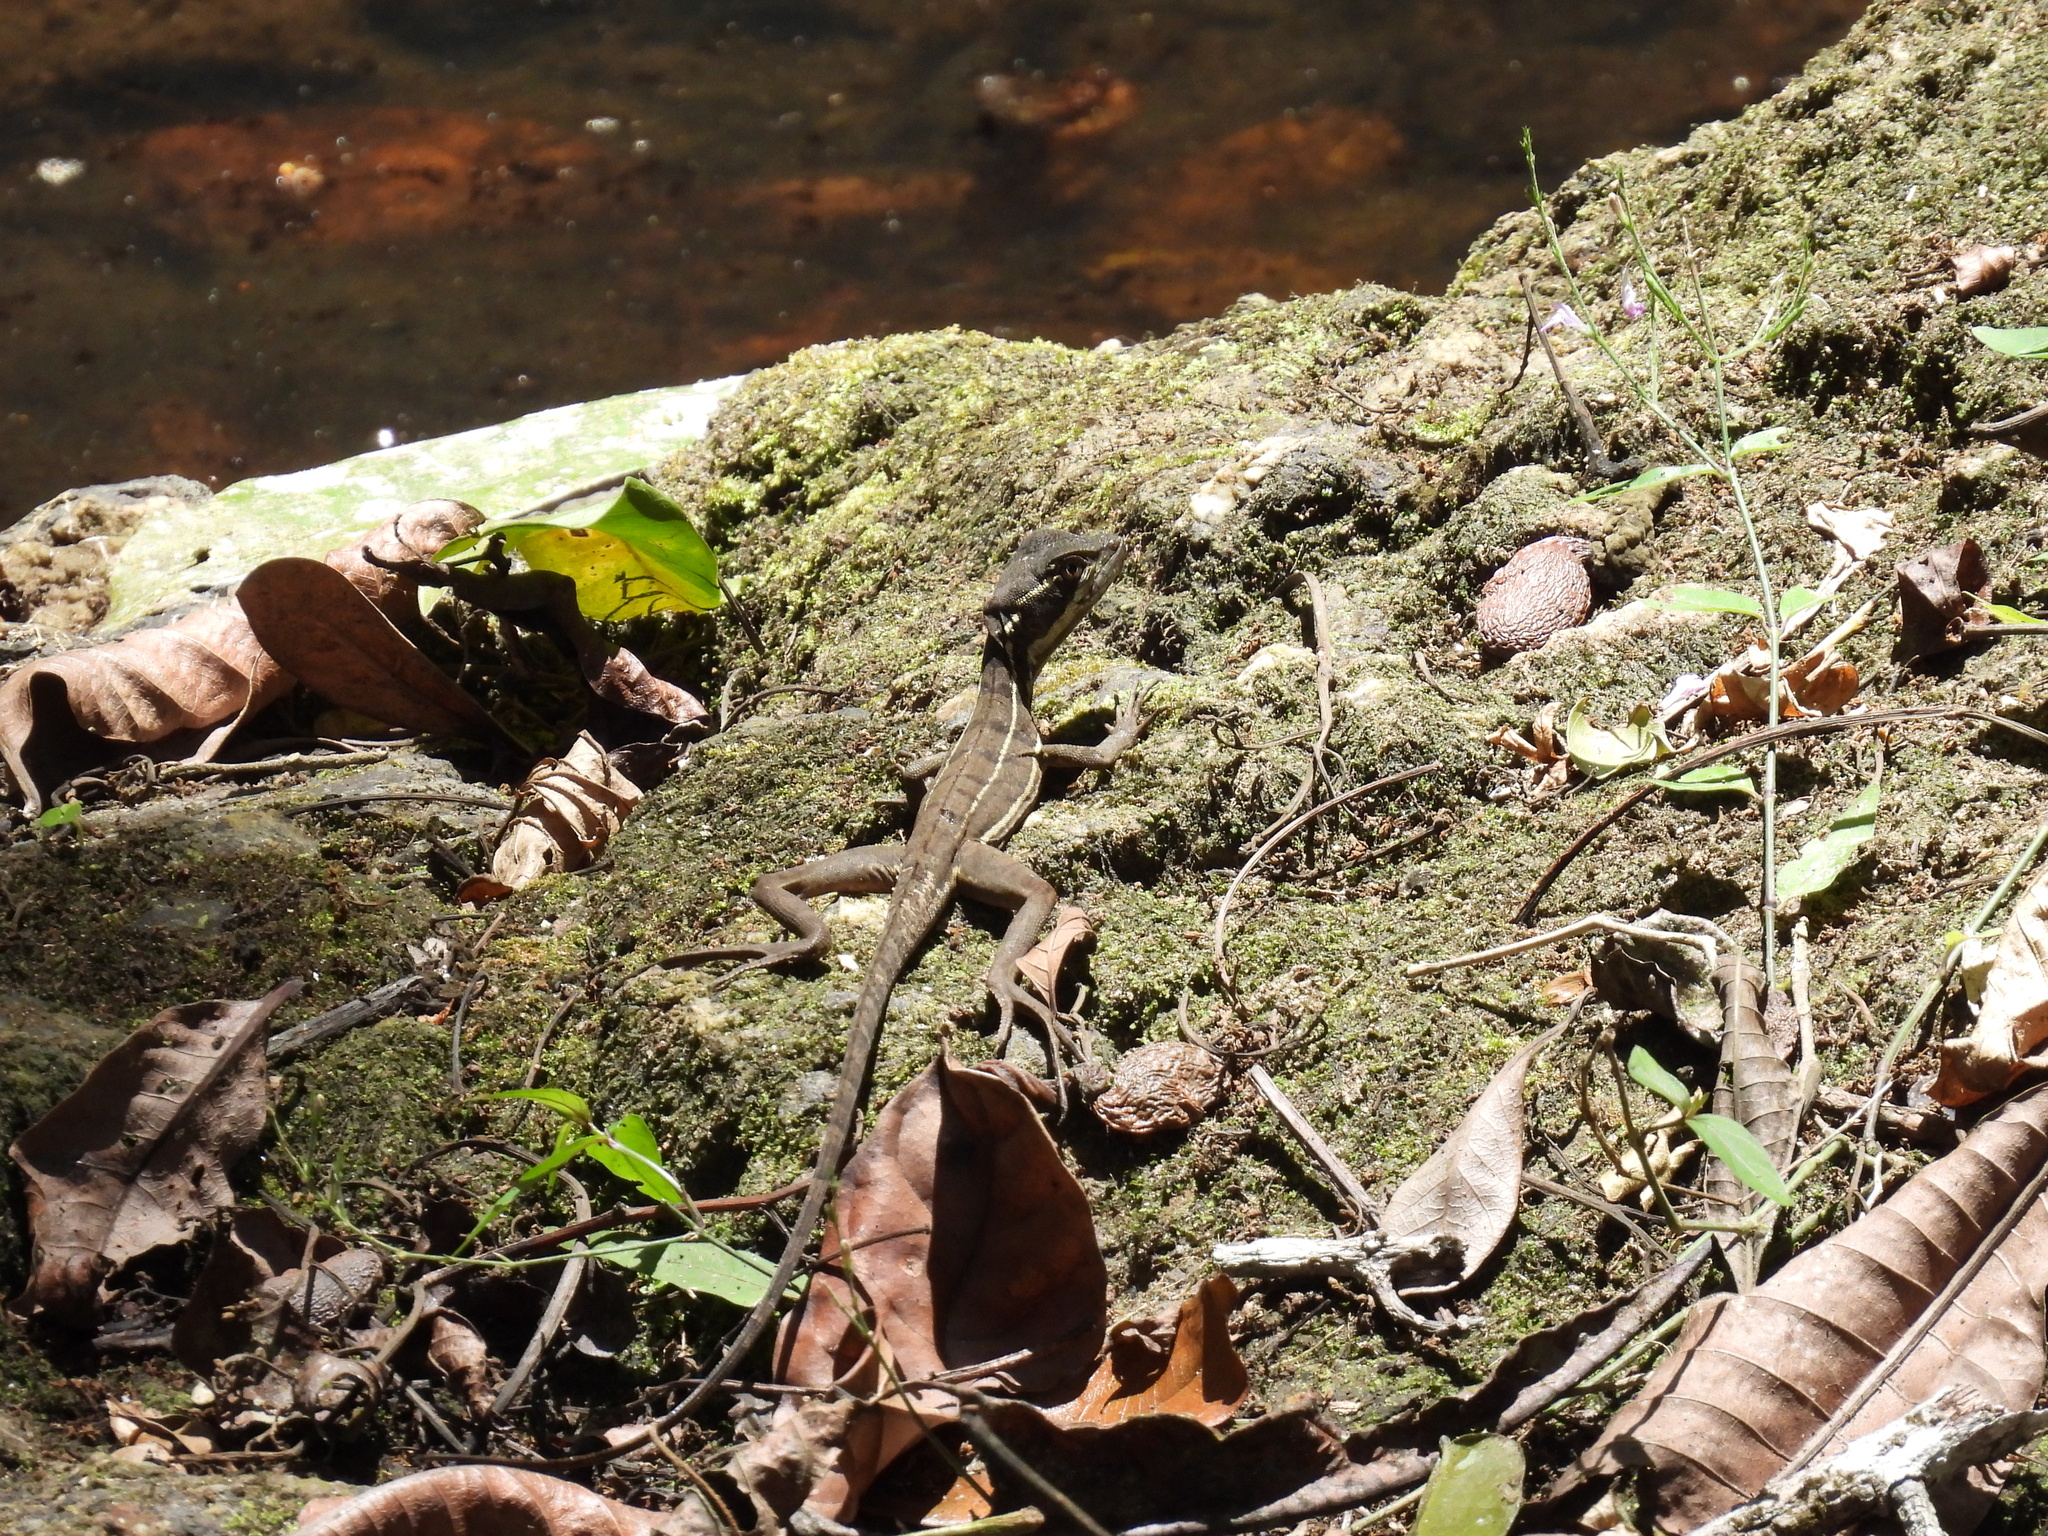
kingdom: Animalia
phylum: Chordata
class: Squamata
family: Corytophanidae
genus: Basiliscus
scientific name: Basiliscus basiliscus
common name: Common basilisk
